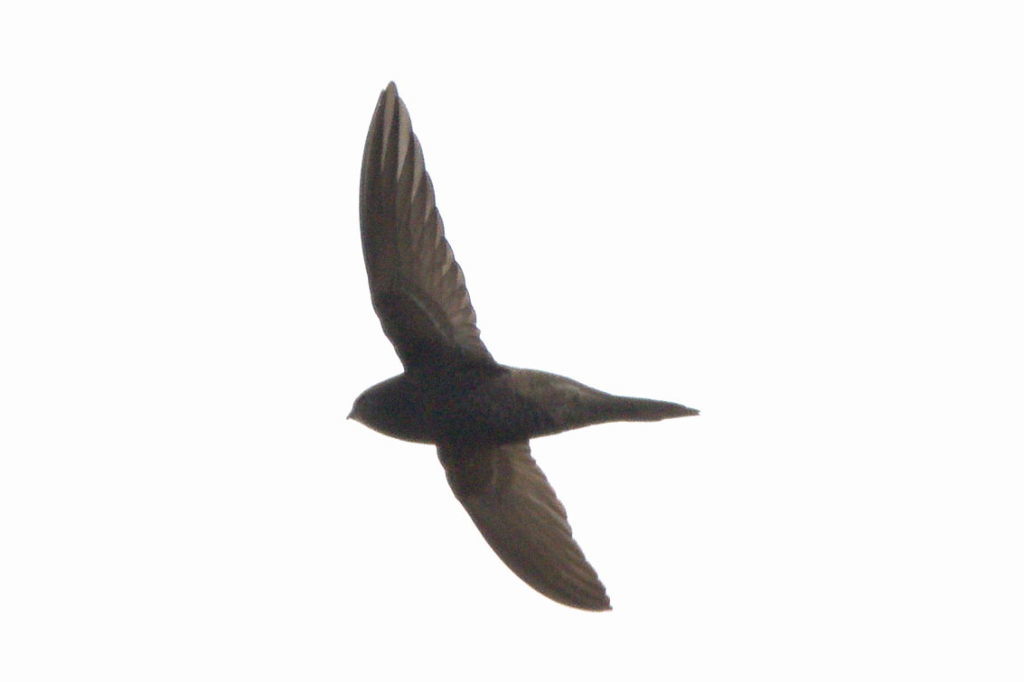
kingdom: Animalia
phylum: Chordata
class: Aves
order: Apodiformes
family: Apodidae
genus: Apus
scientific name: Apus apus
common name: Common swift
